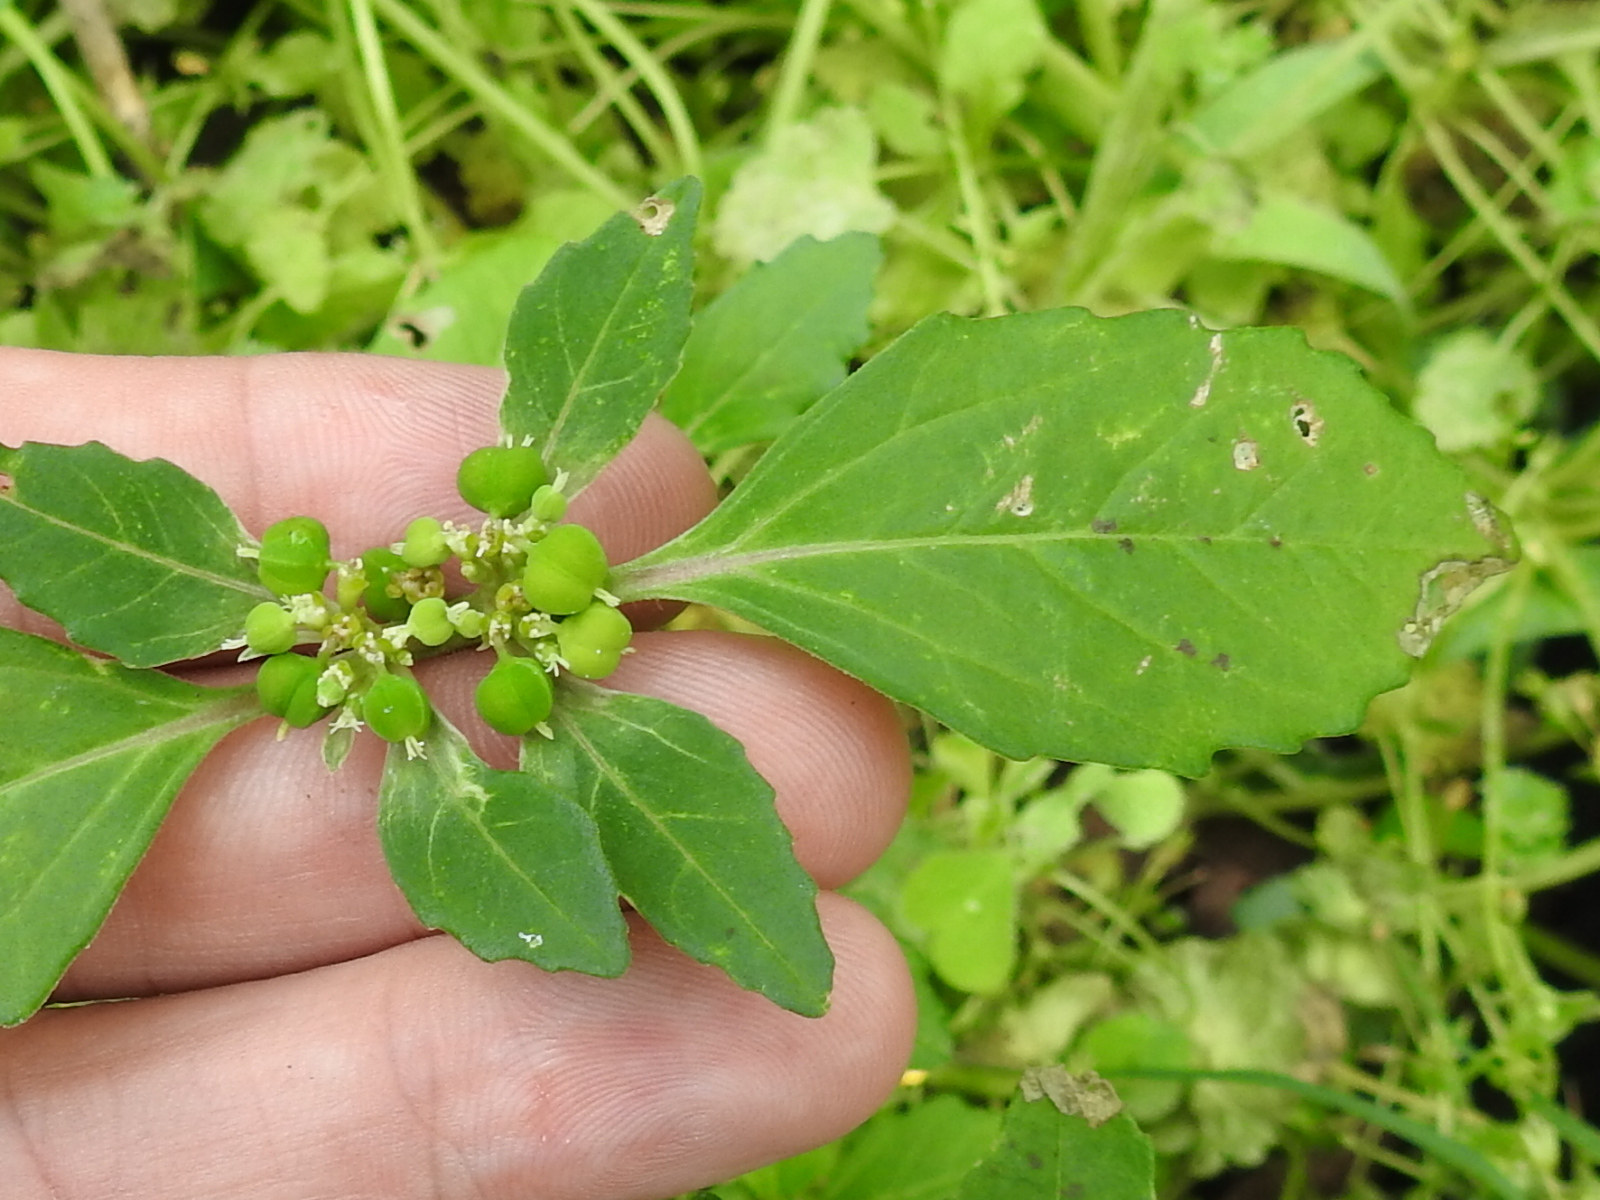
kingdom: Plantae
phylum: Tracheophyta
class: Magnoliopsida
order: Malpighiales
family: Euphorbiaceae
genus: Euphorbia
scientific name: Euphorbia dentata
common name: Dentate spurge
